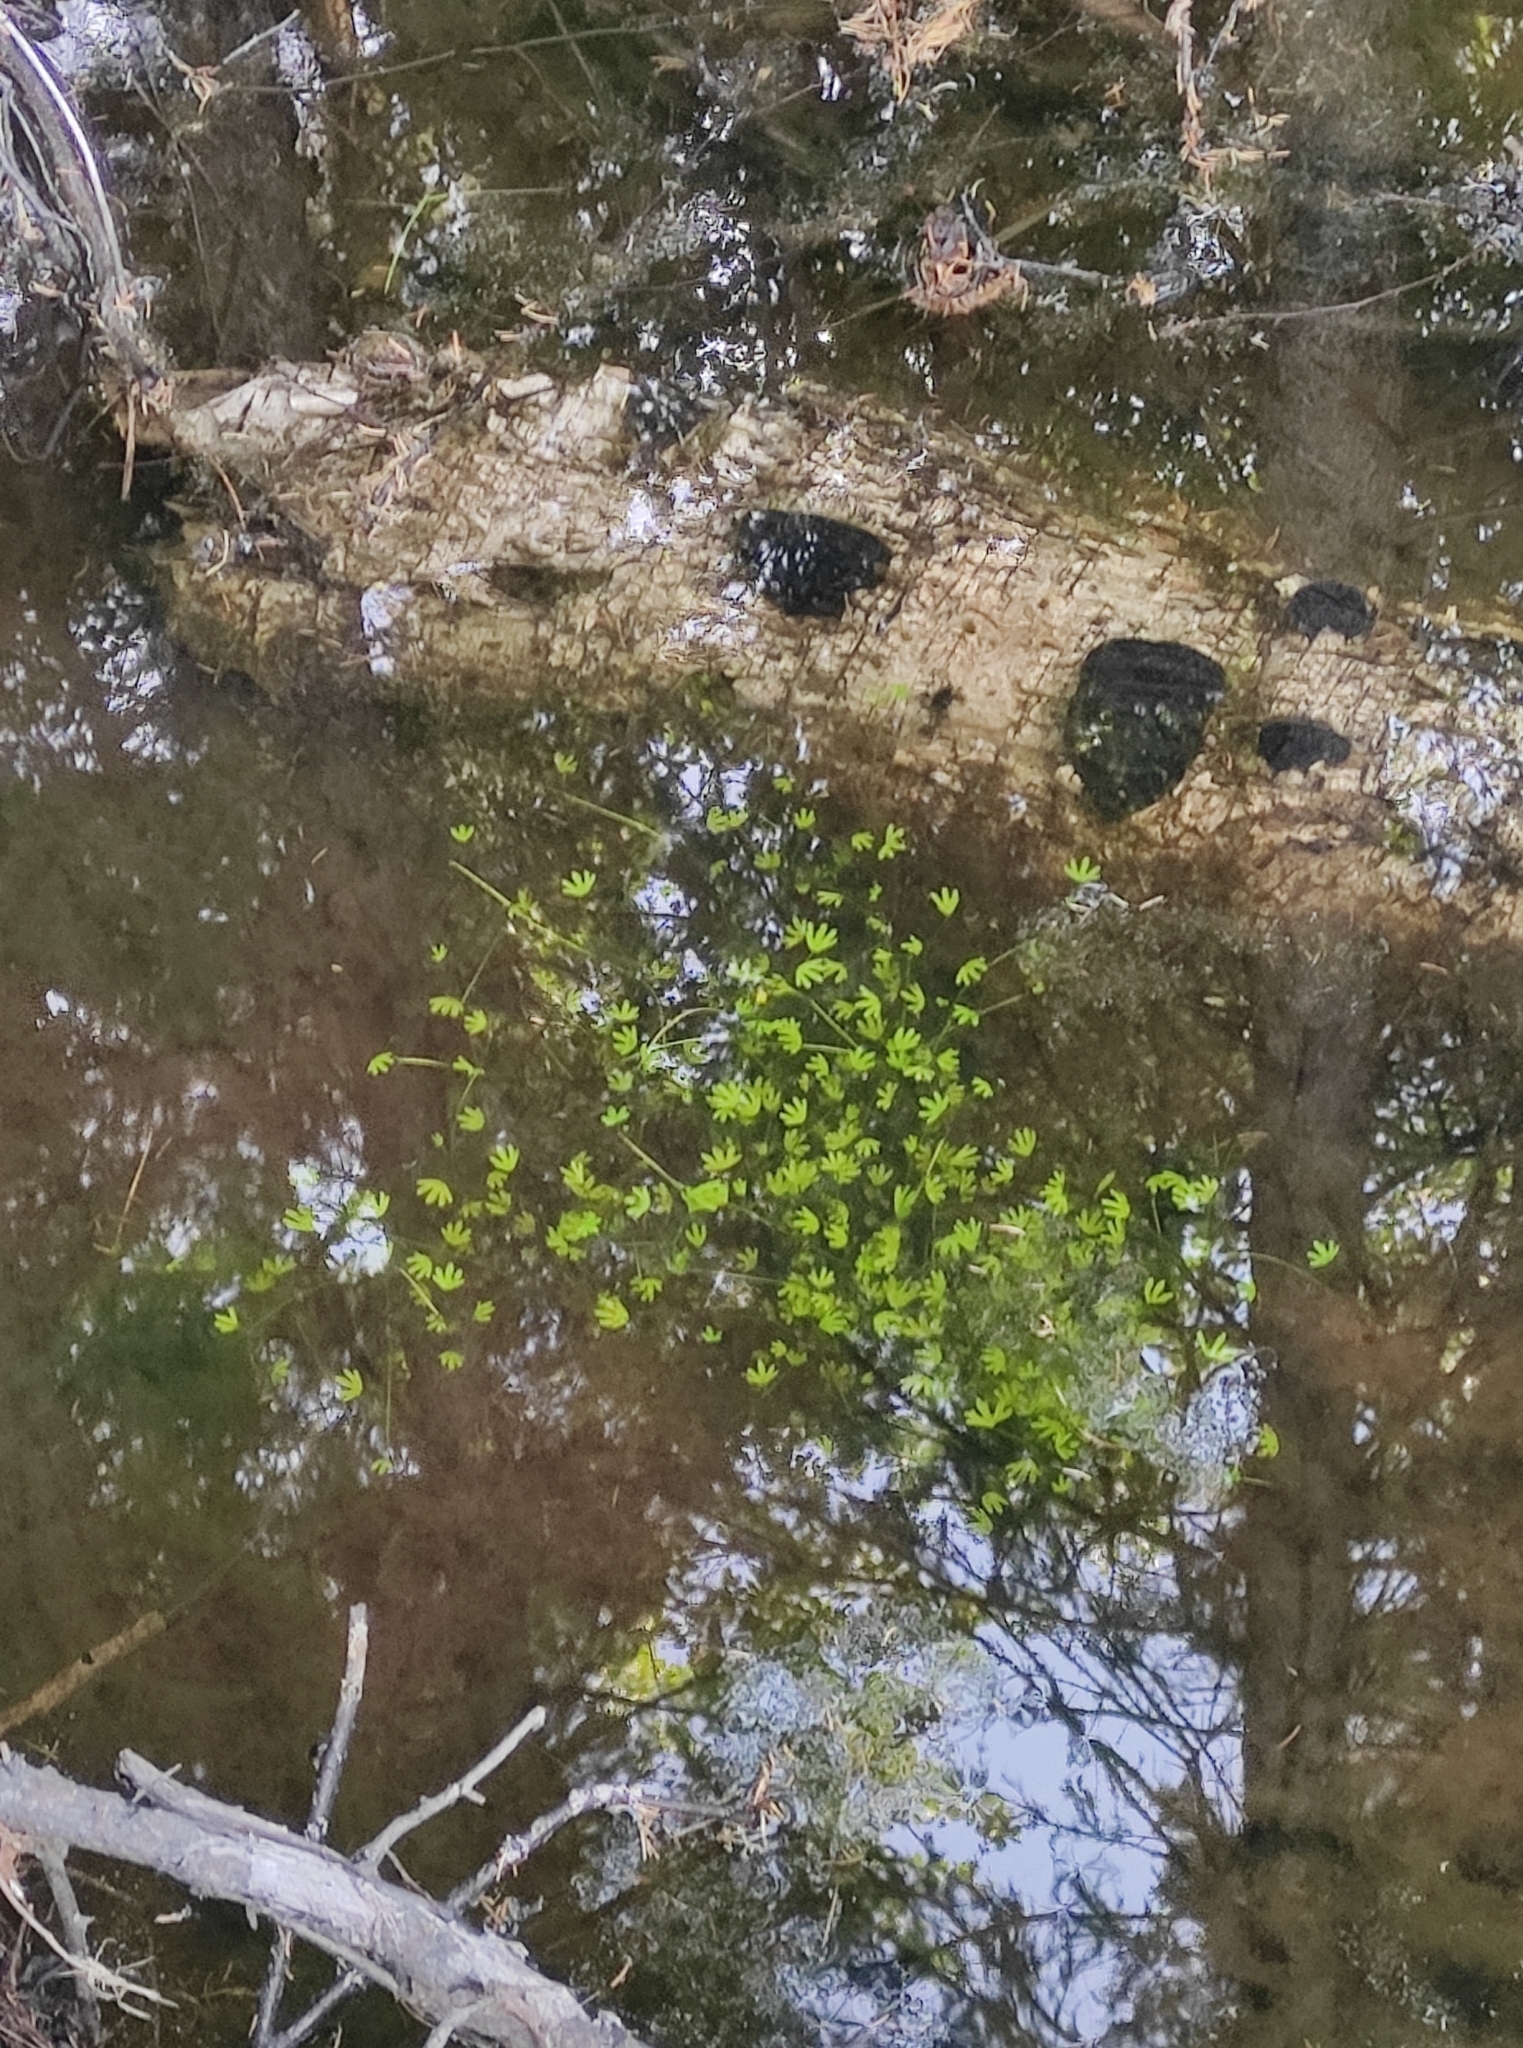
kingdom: Plantae
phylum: Tracheophyta
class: Magnoliopsida
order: Ranunculales
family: Ranunculaceae
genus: Ranunculus
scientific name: Ranunculus gmelinii
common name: Gmelin's buttercup
